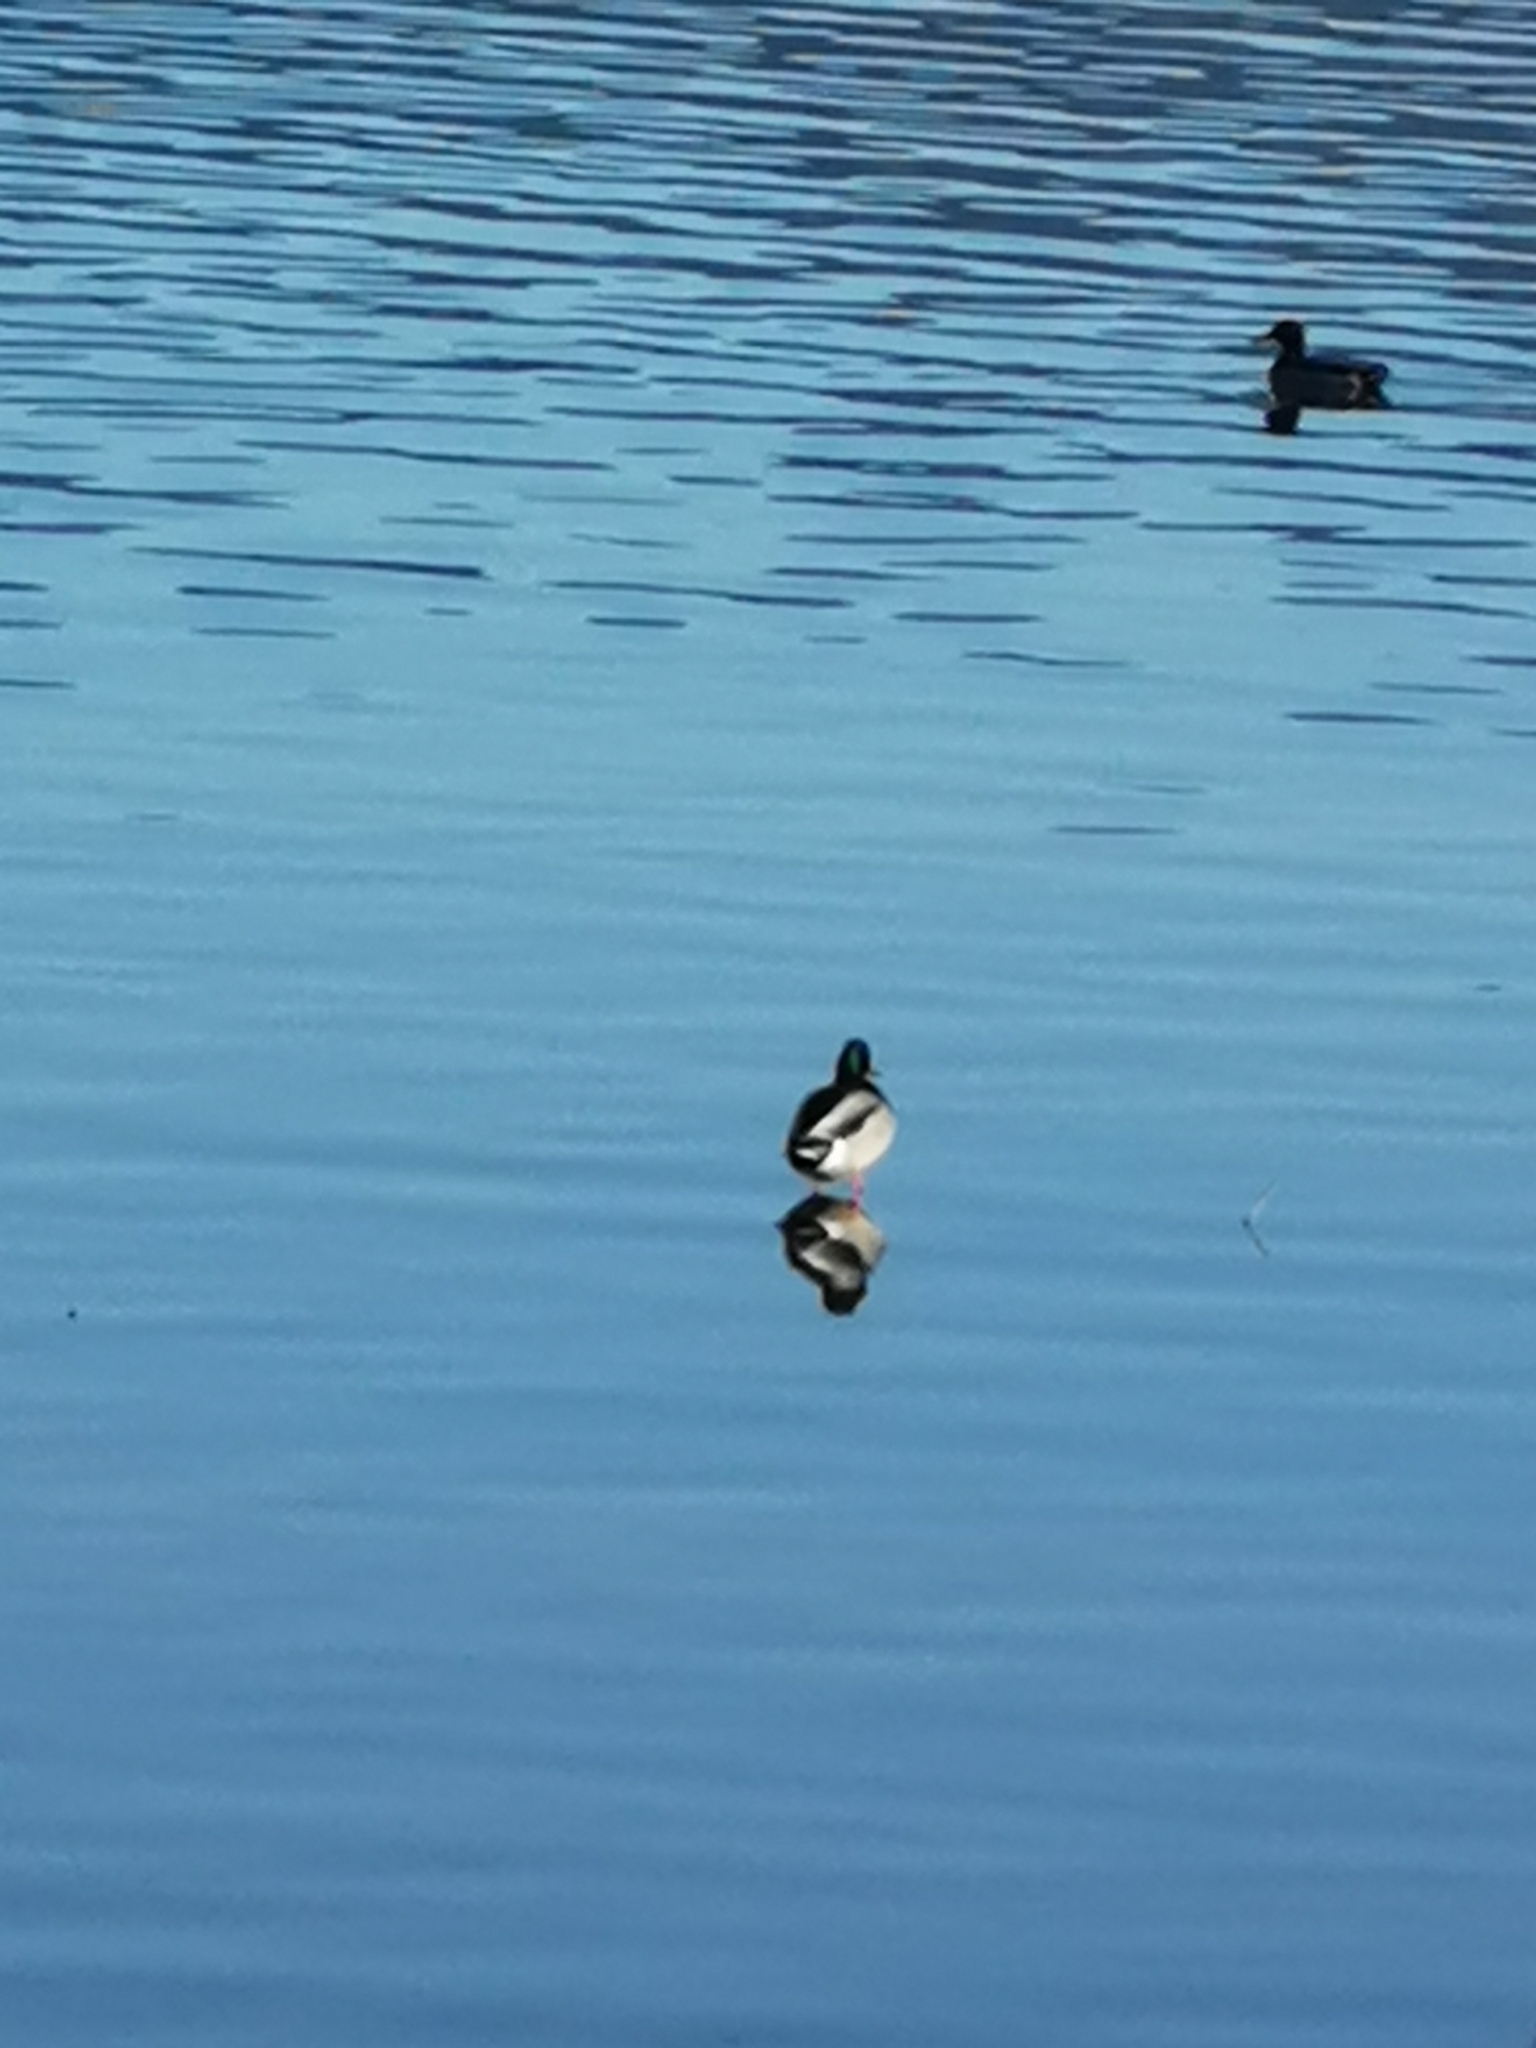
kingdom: Animalia
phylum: Chordata
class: Aves
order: Anseriformes
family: Anatidae
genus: Anas
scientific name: Anas platyrhynchos
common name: Mallard
